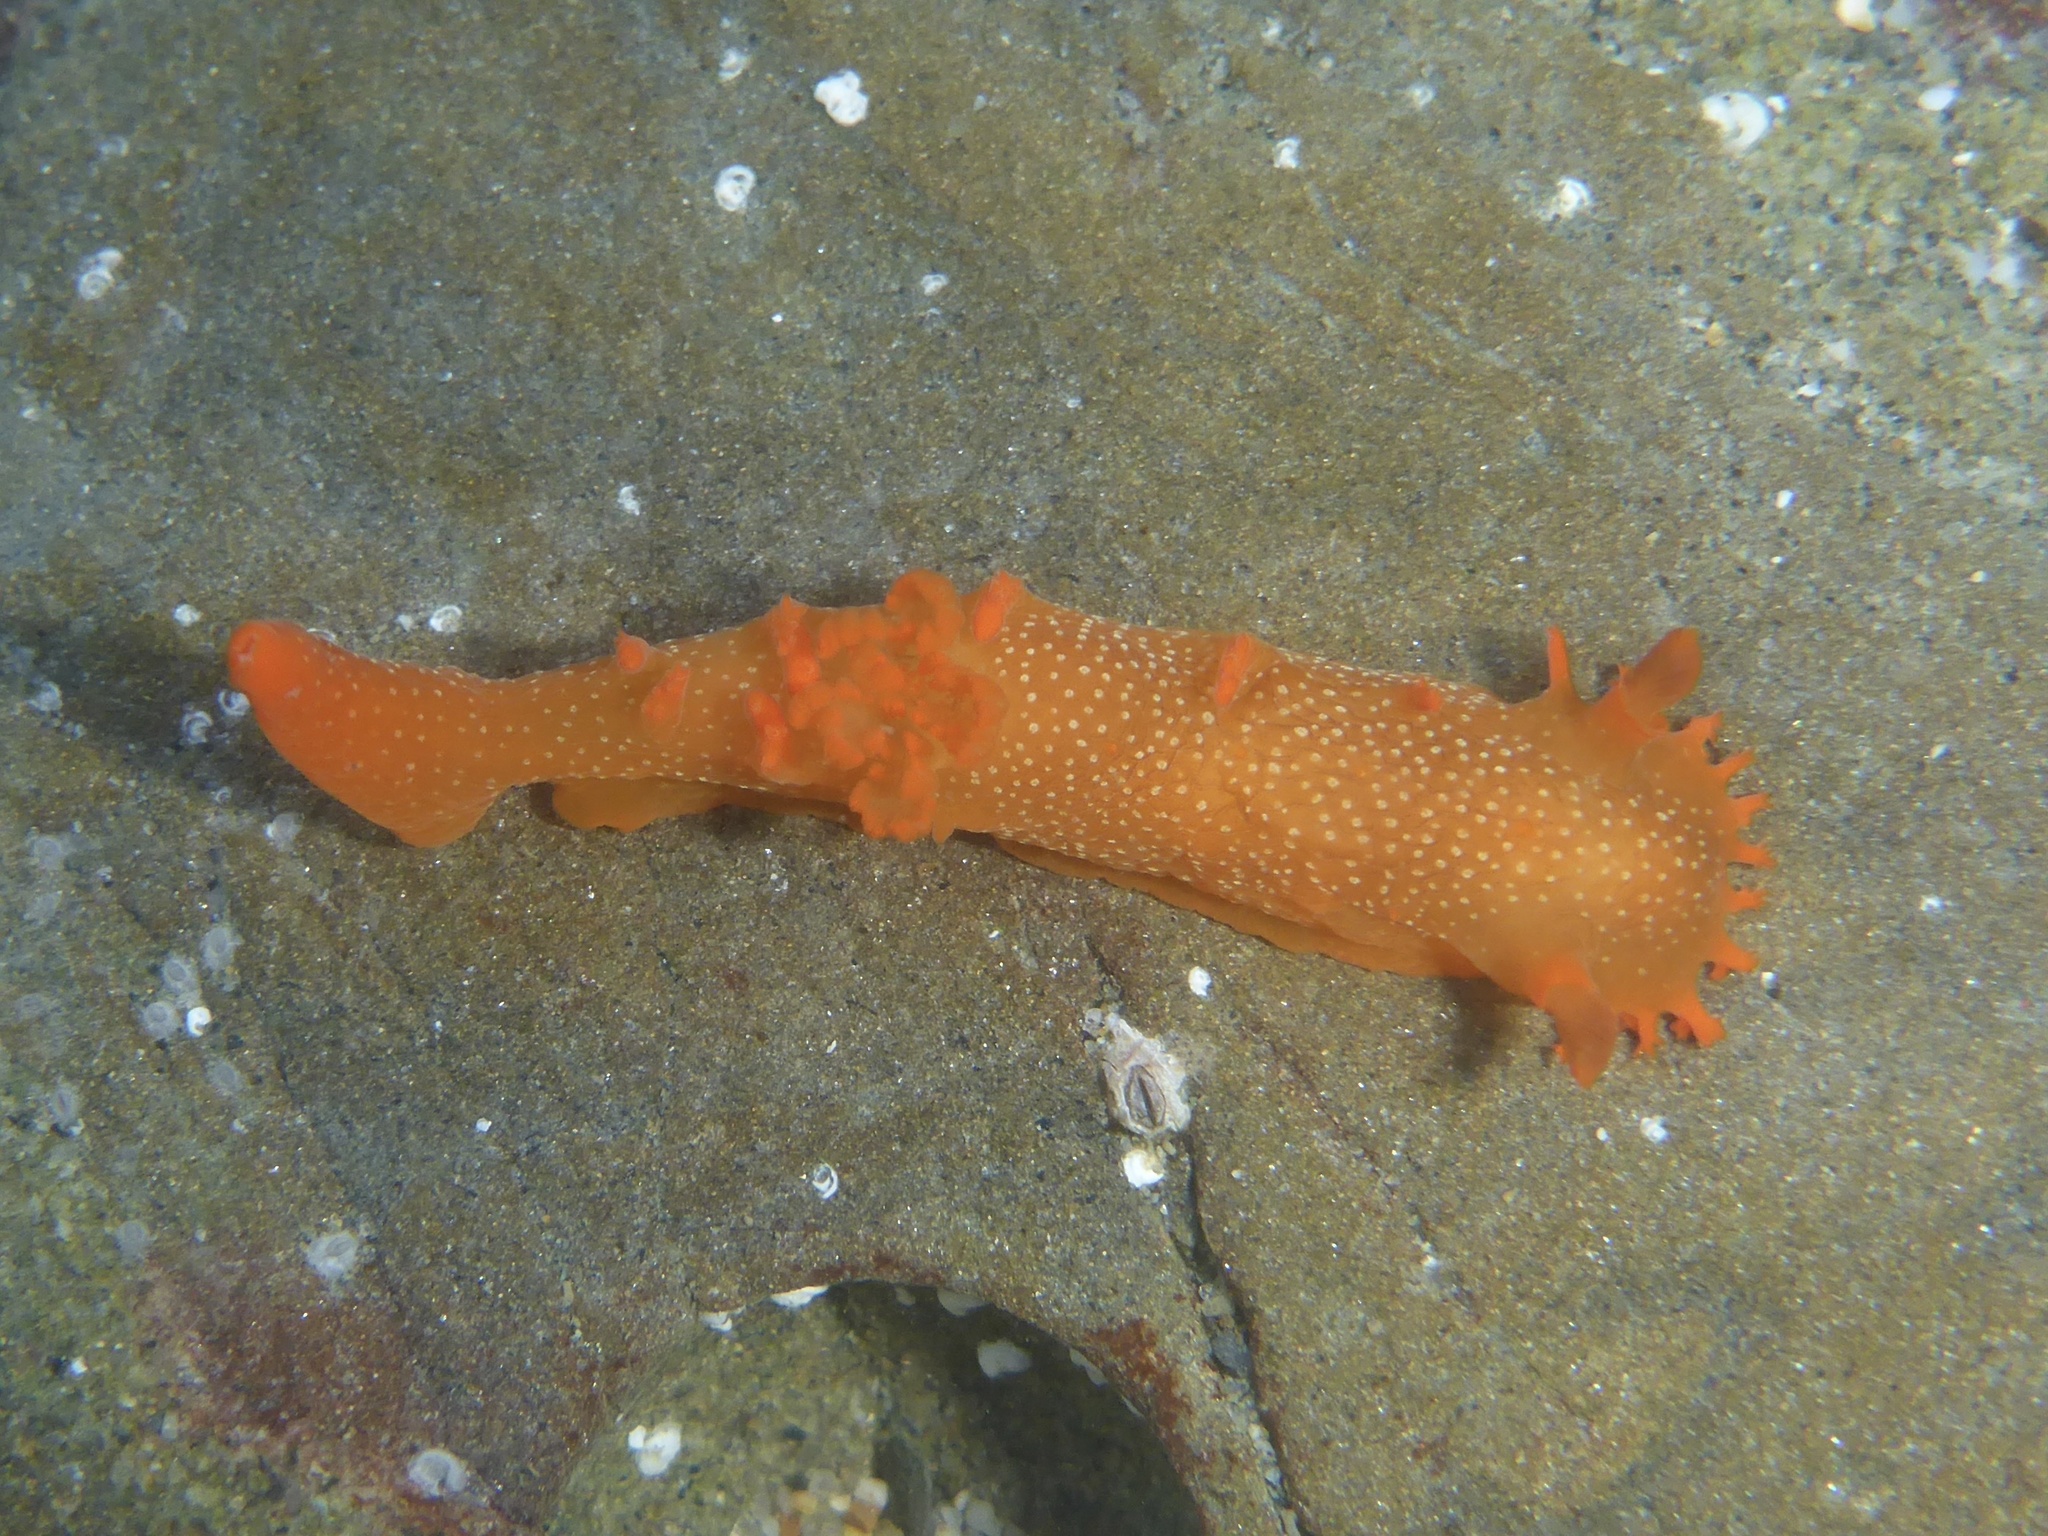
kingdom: Animalia
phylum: Mollusca
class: Gastropoda
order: Nudibranchia
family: Polyceridae
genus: Triopha
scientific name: Triopha maculata
